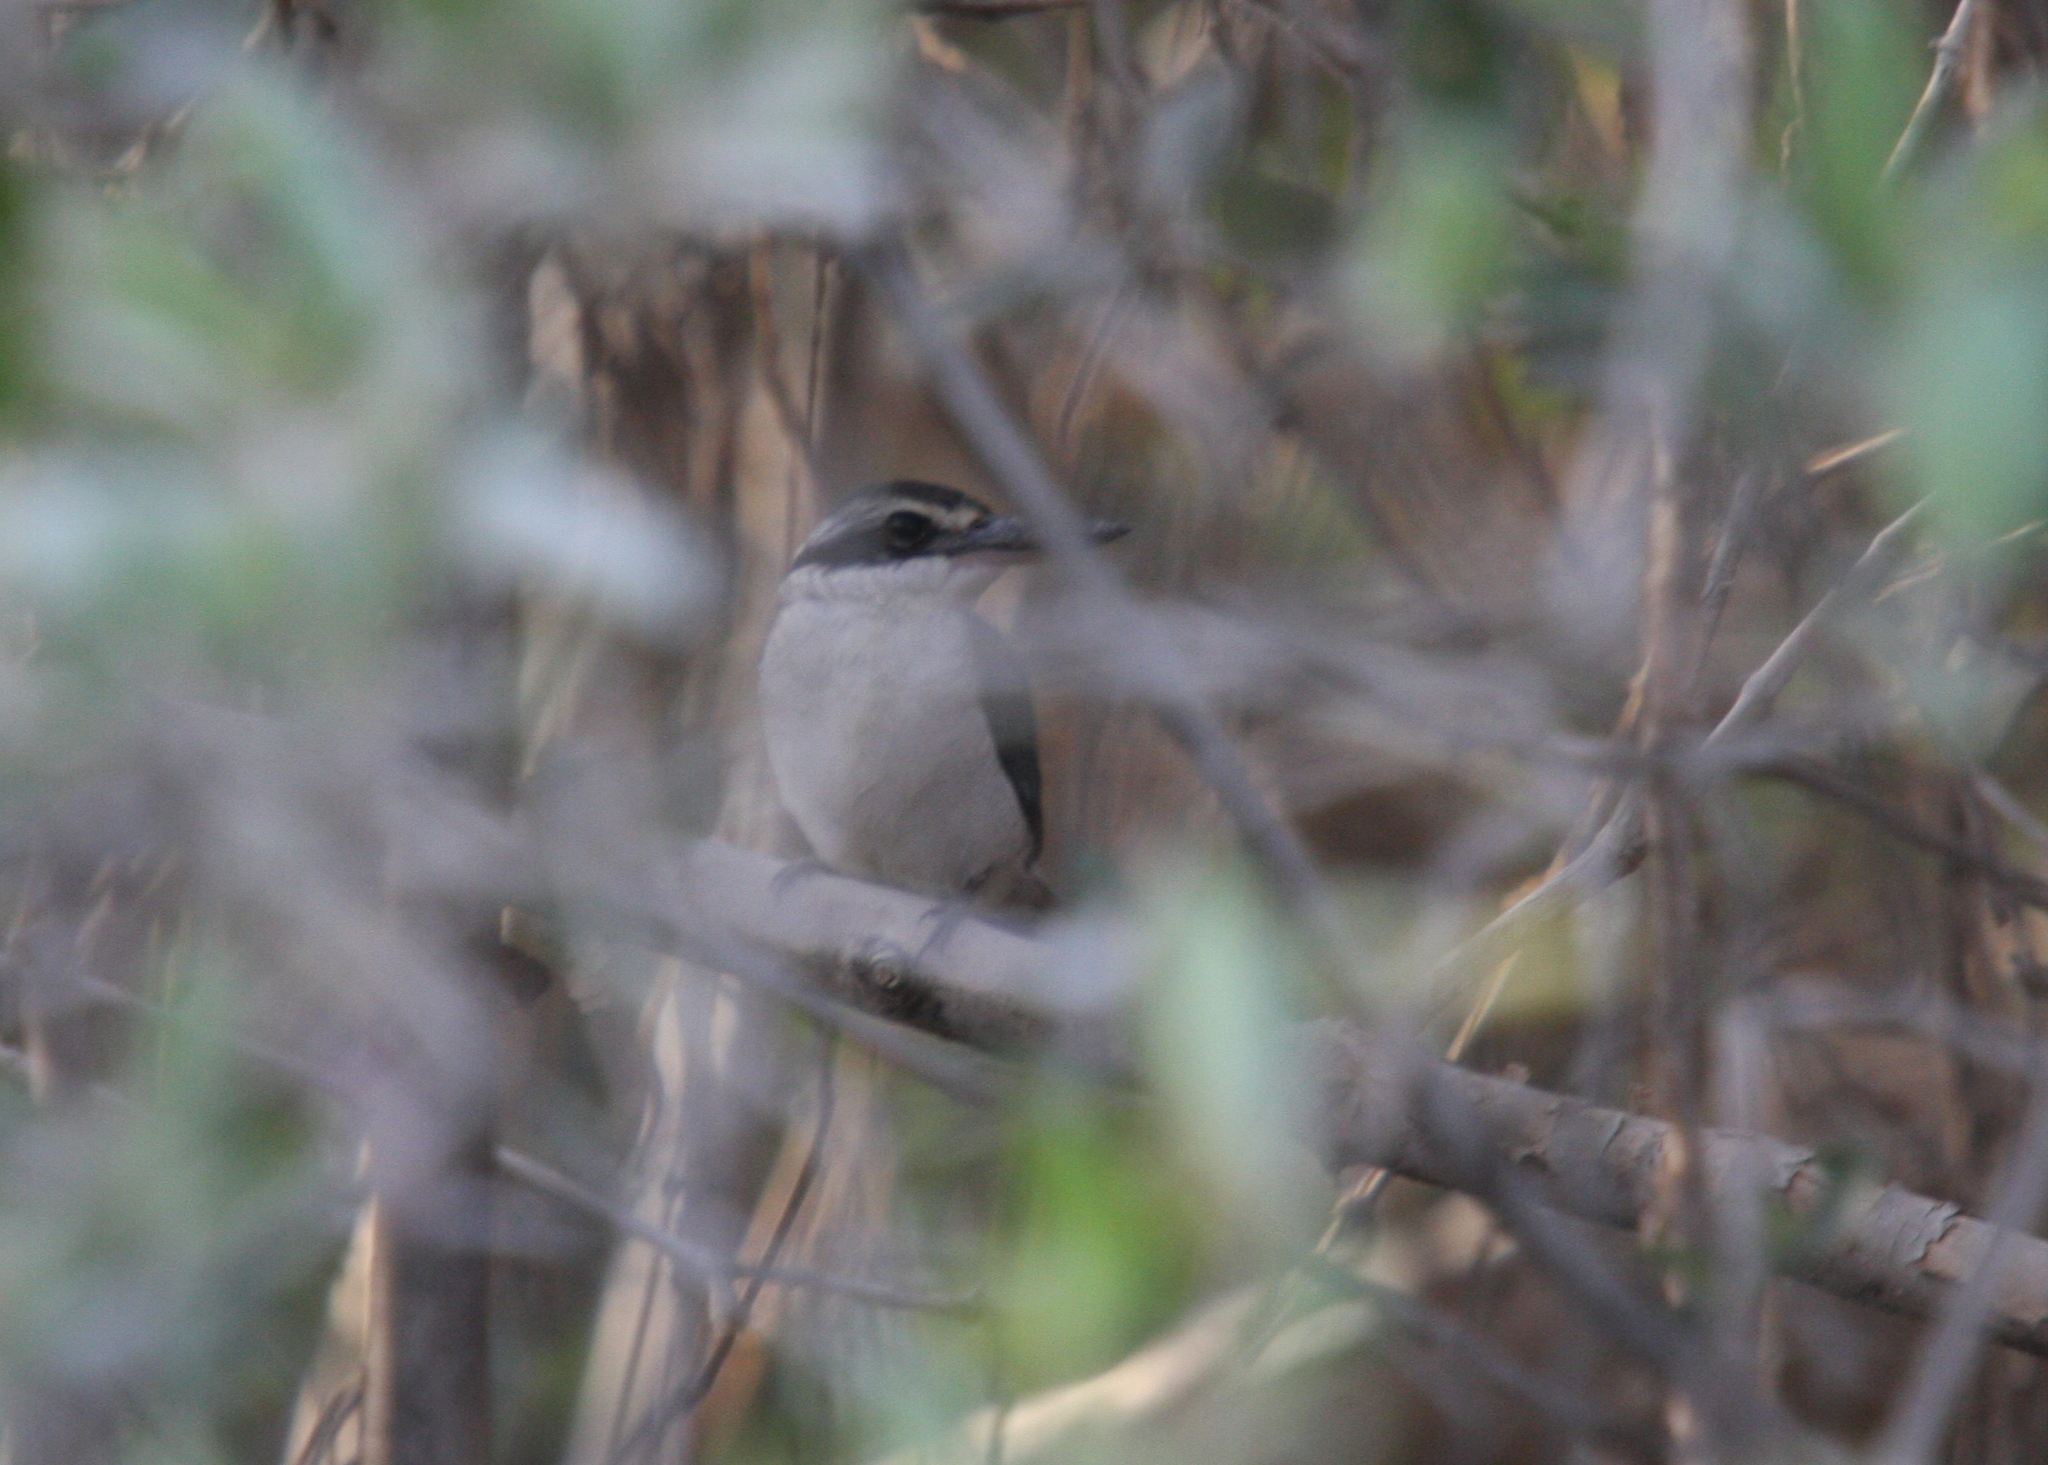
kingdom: Animalia
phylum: Chordata
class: Aves
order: Coraciiformes
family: Alcedinidae
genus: Todiramphus
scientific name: Todiramphus chloris
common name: Collared kingfisher
